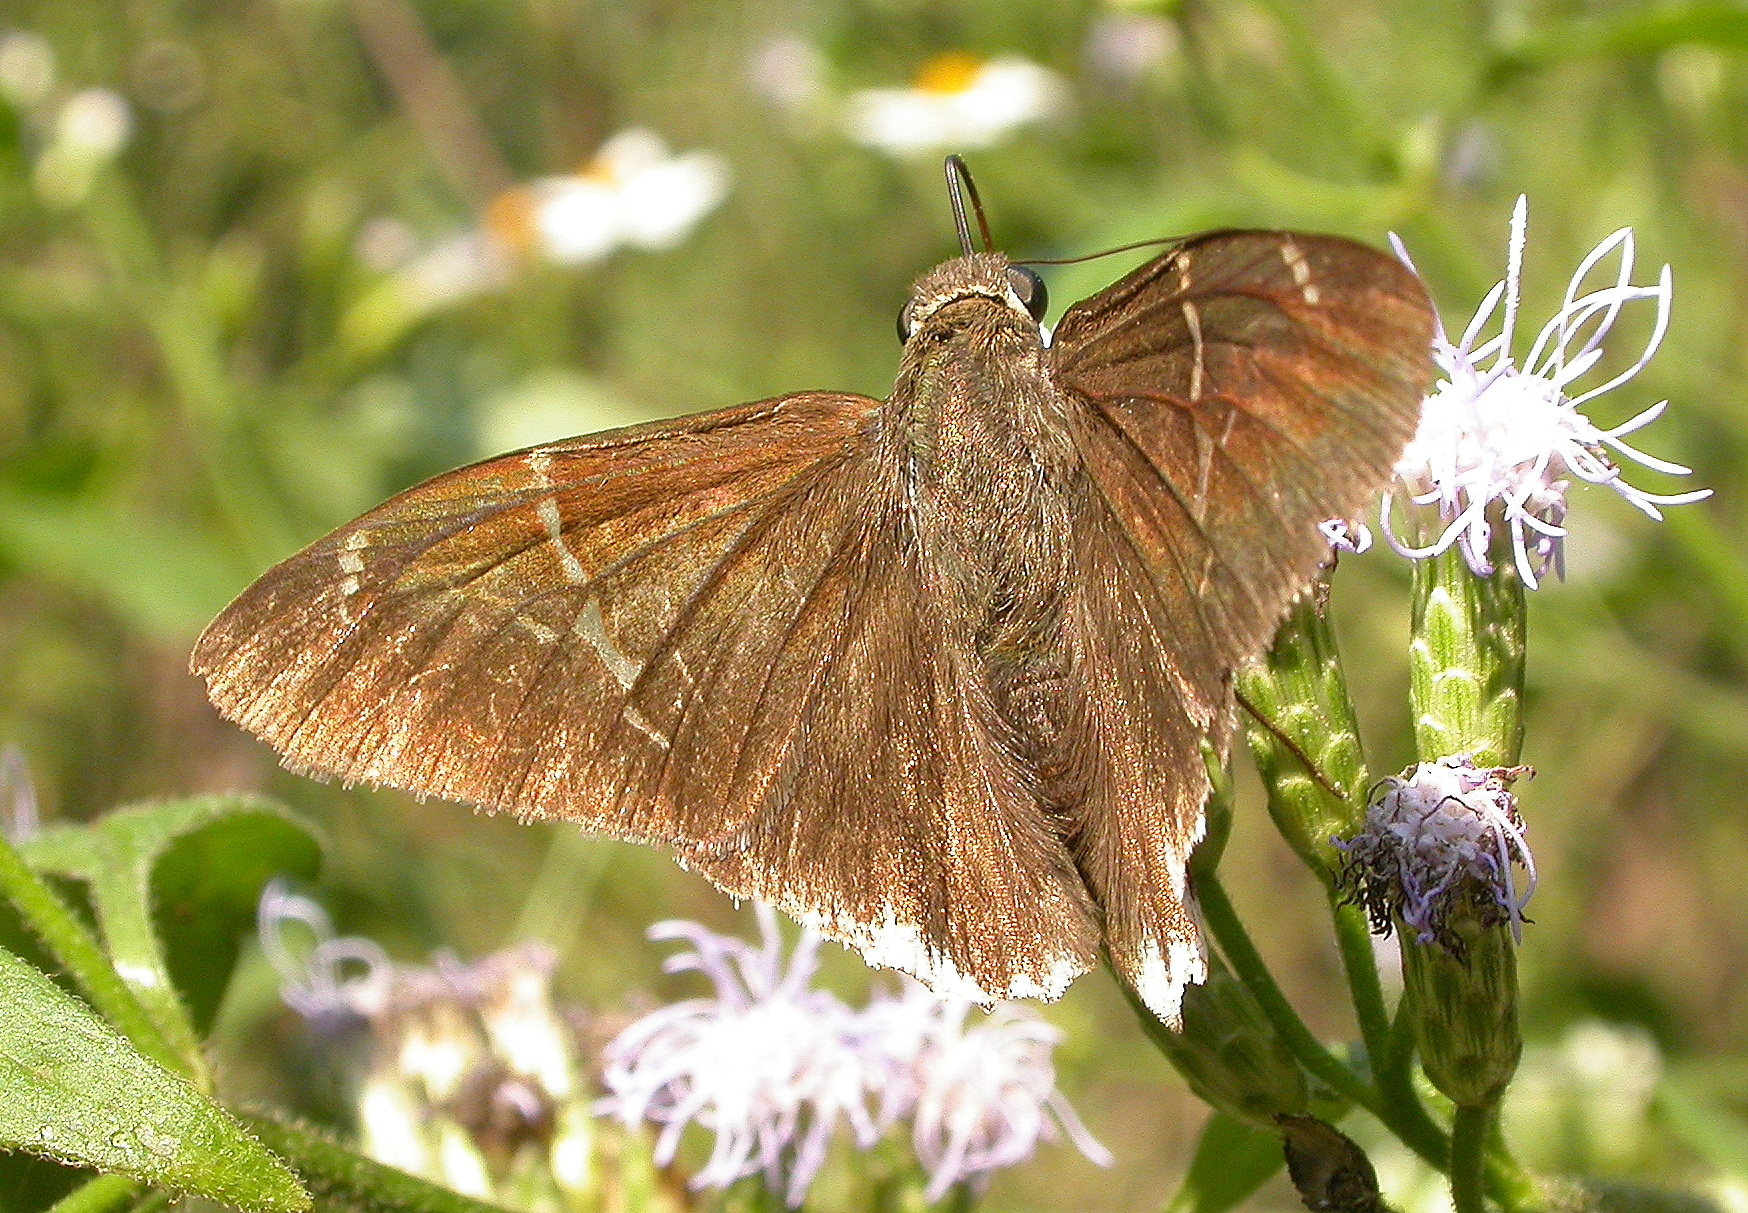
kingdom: Animalia
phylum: Arthropoda
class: Insecta
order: Lepidoptera
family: Hesperiidae
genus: Achalarus
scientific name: Achalarus
